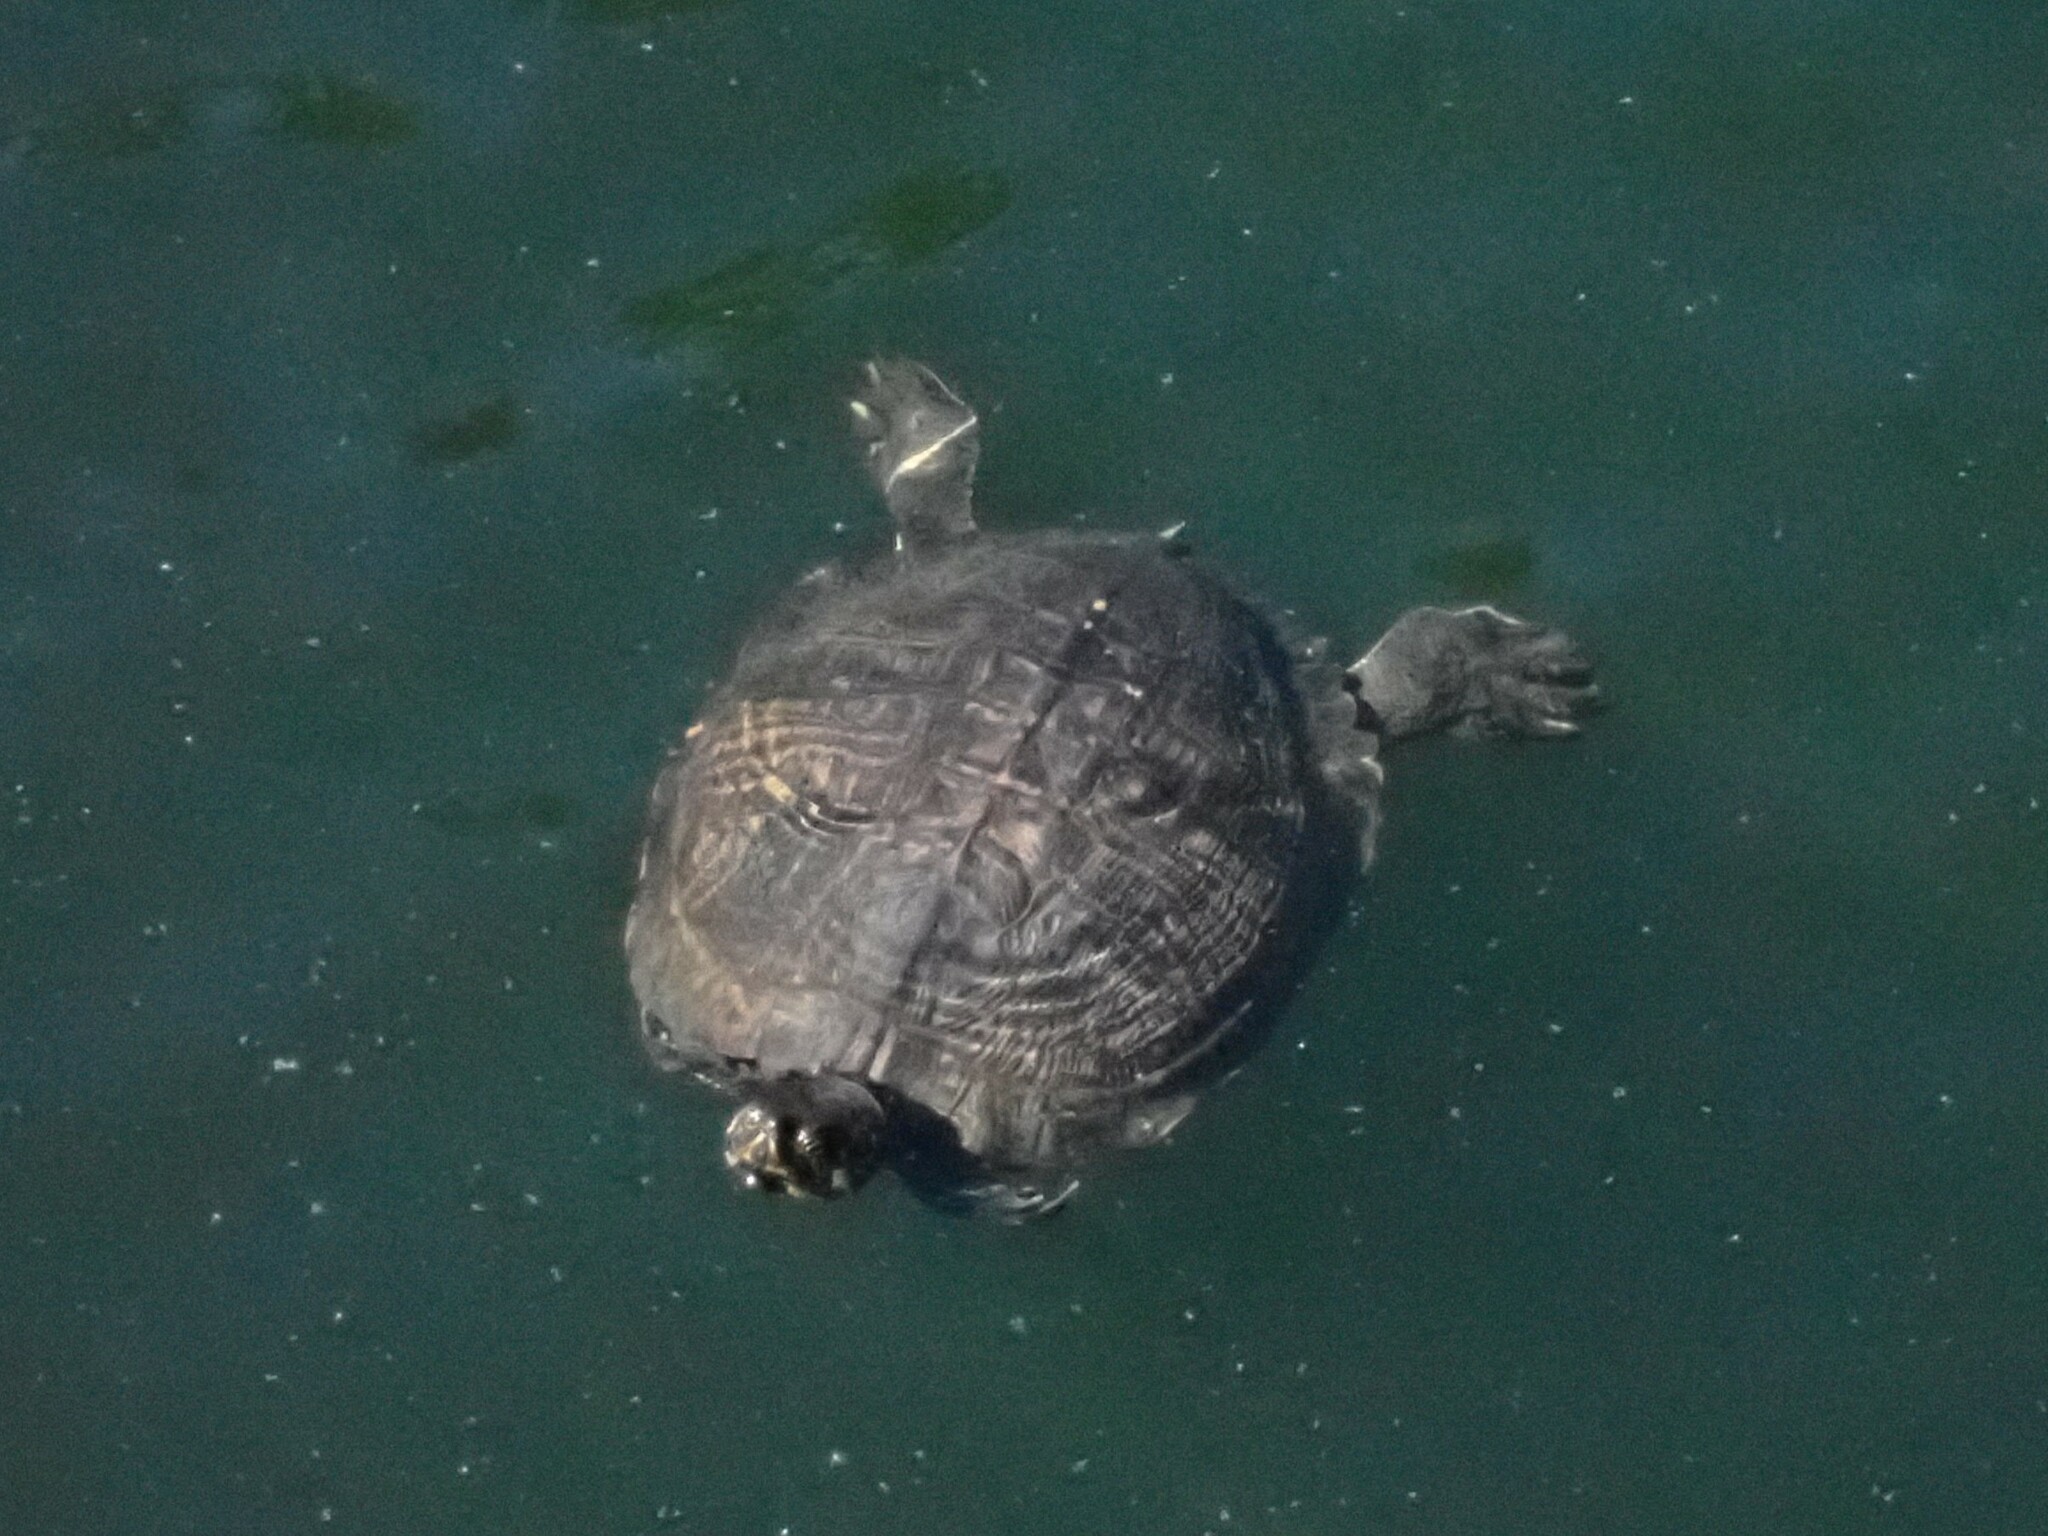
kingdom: Animalia
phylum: Chordata
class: Testudines
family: Emydidae
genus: Trachemys
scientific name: Trachemys scripta
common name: Slider
